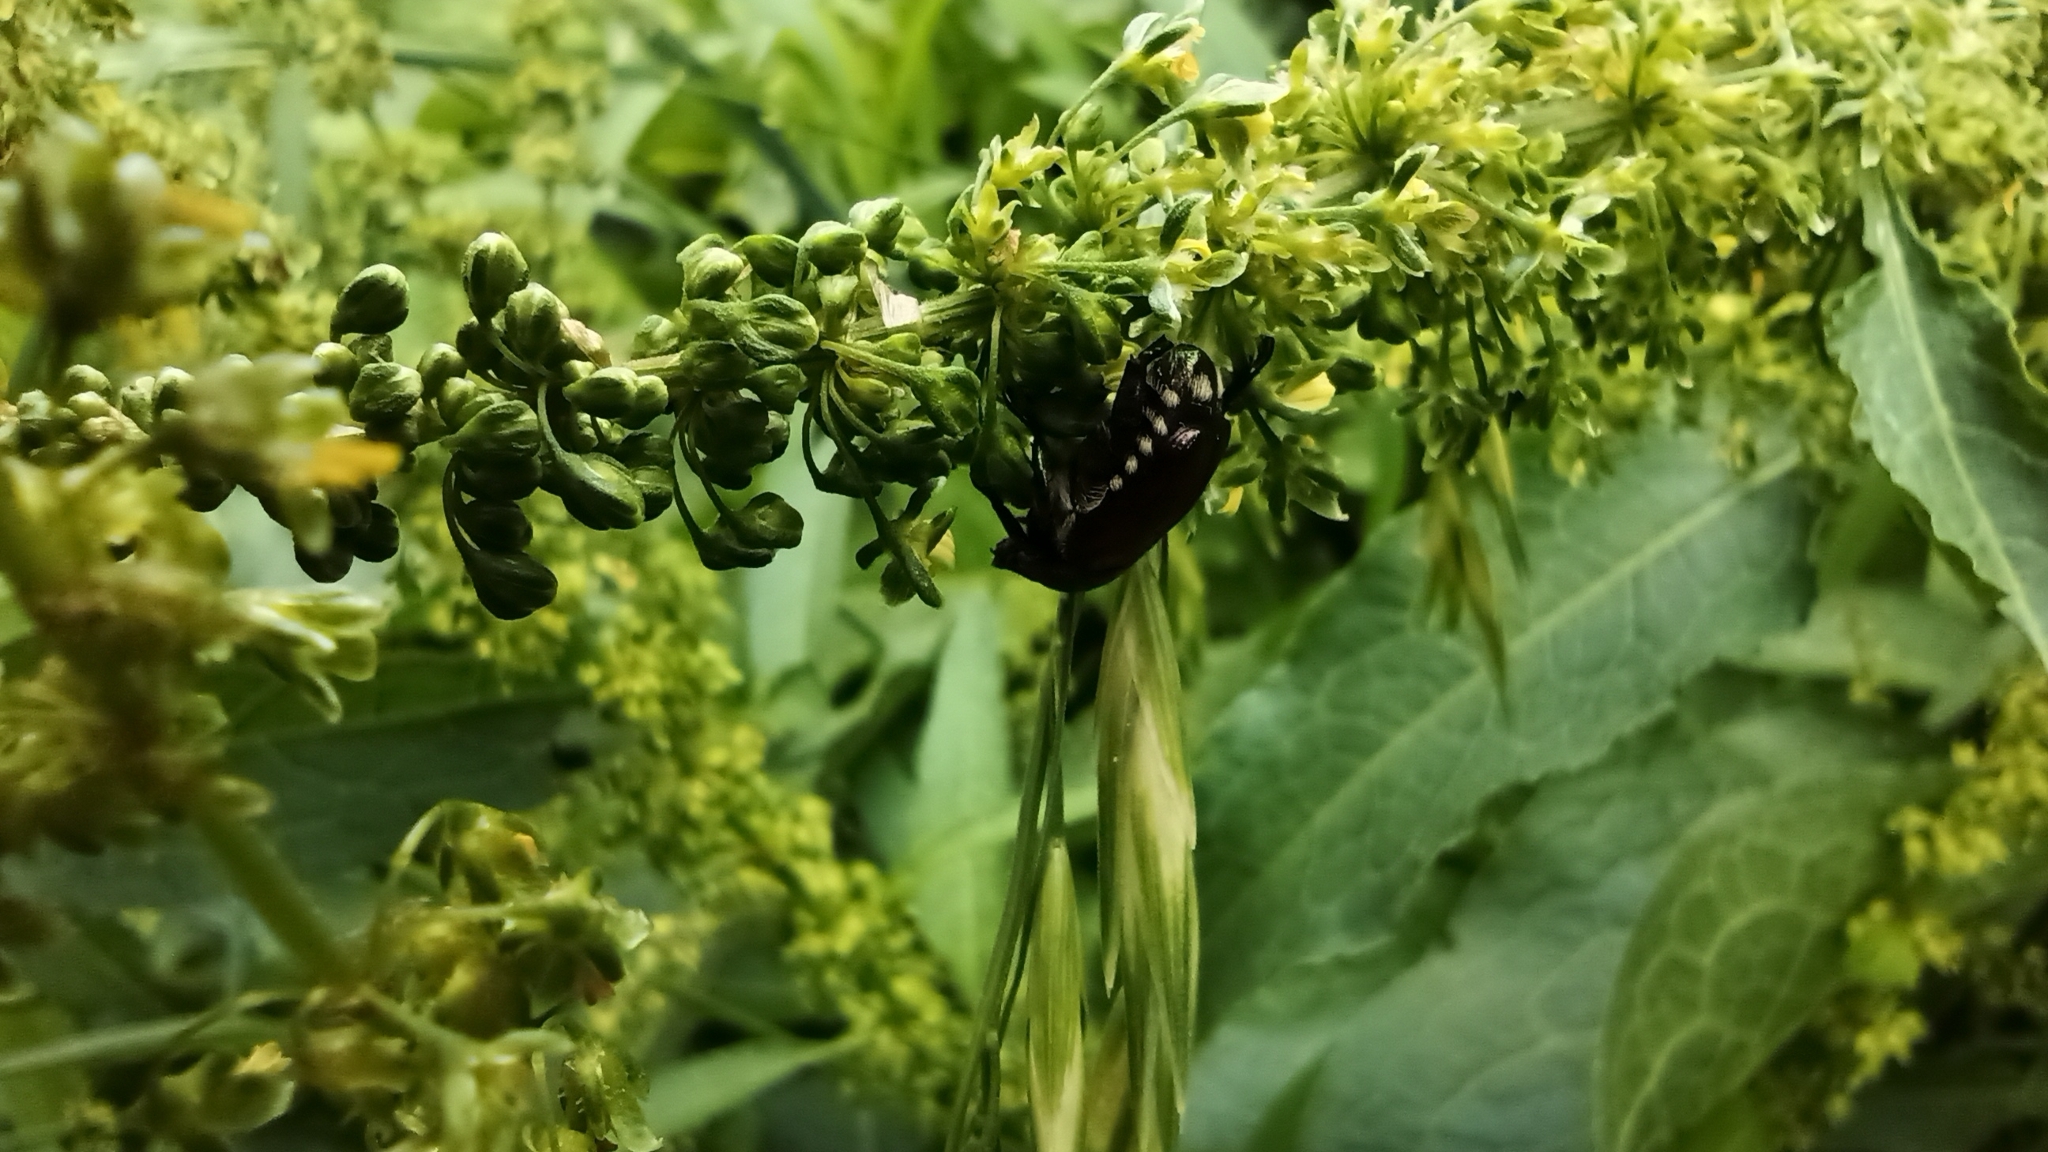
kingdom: Animalia
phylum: Arthropoda
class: Insecta
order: Coleoptera
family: Scarabaeidae
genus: Popillia
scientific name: Popillia japonica
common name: Japanese beetle
